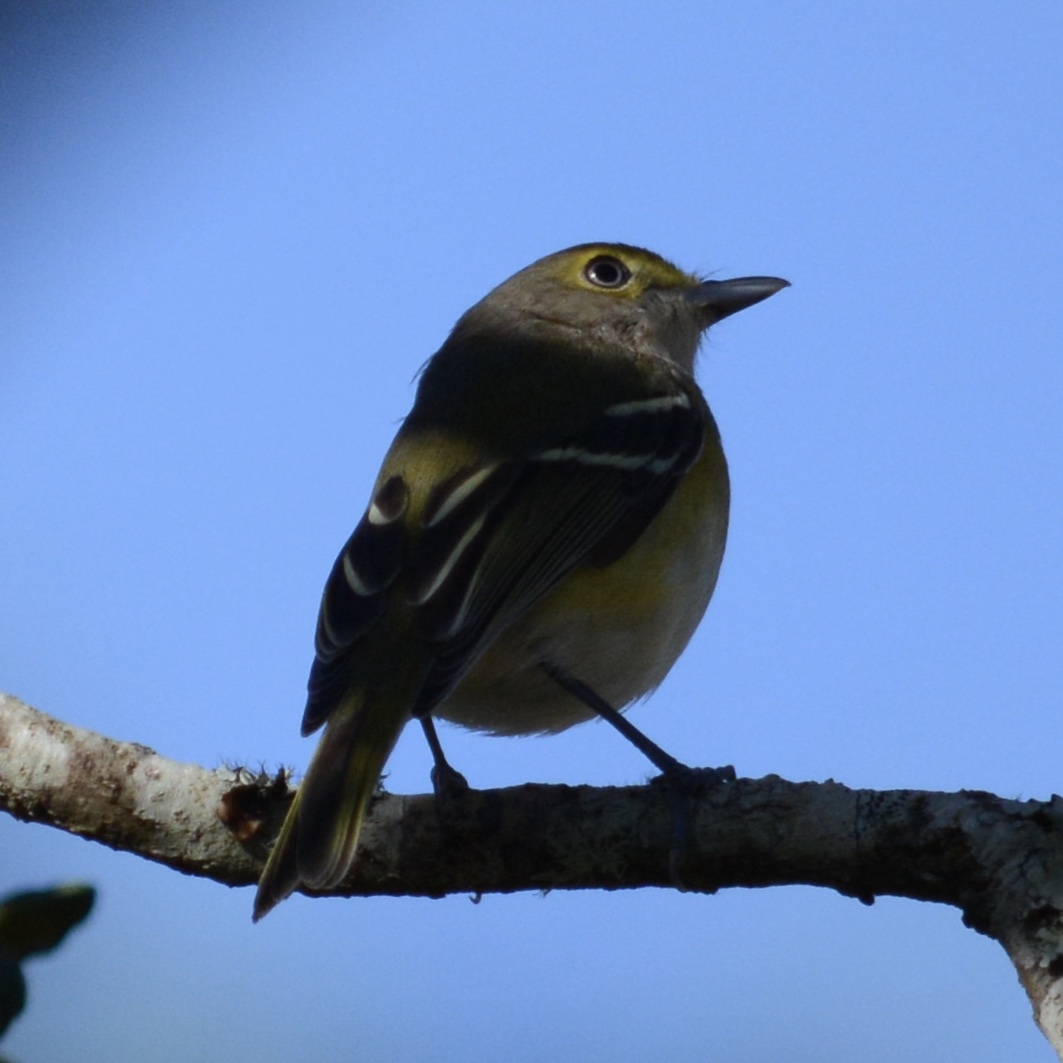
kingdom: Animalia
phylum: Chordata
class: Aves
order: Passeriformes
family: Vireonidae
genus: Vireo
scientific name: Vireo griseus
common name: White-eyed vireo
